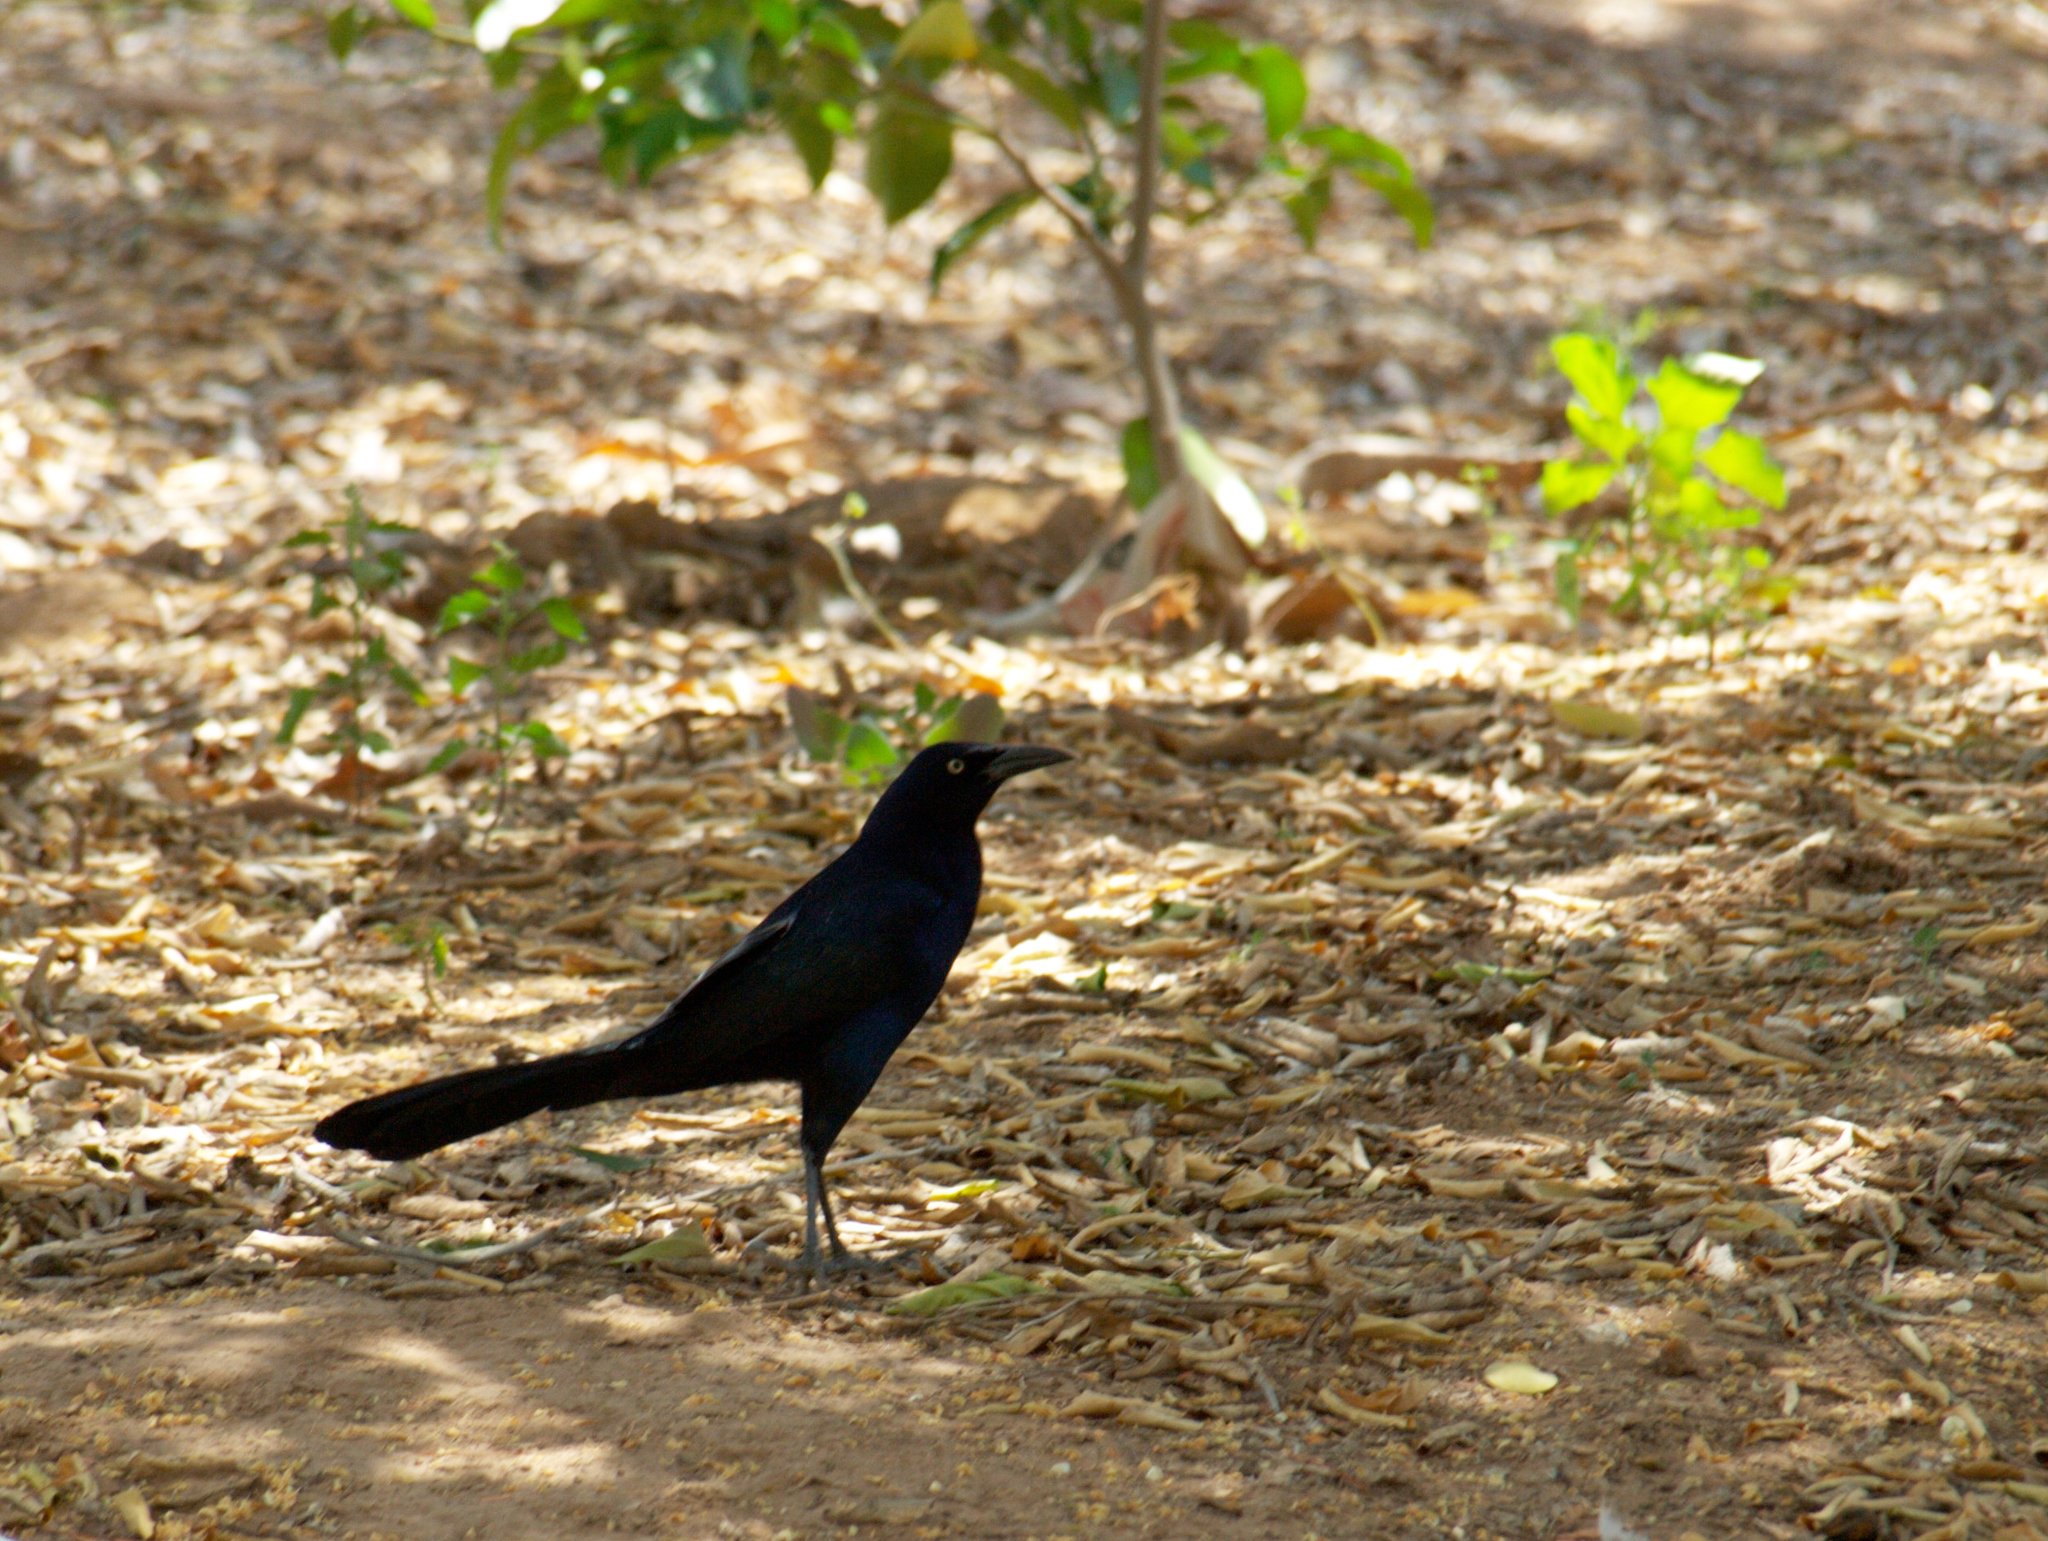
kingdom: Animalia
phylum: Chordata
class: Aves
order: Passeriformes
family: Icteridae
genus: Quiscalus
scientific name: Quiscalus mexicanus
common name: Great-tailed grackle
